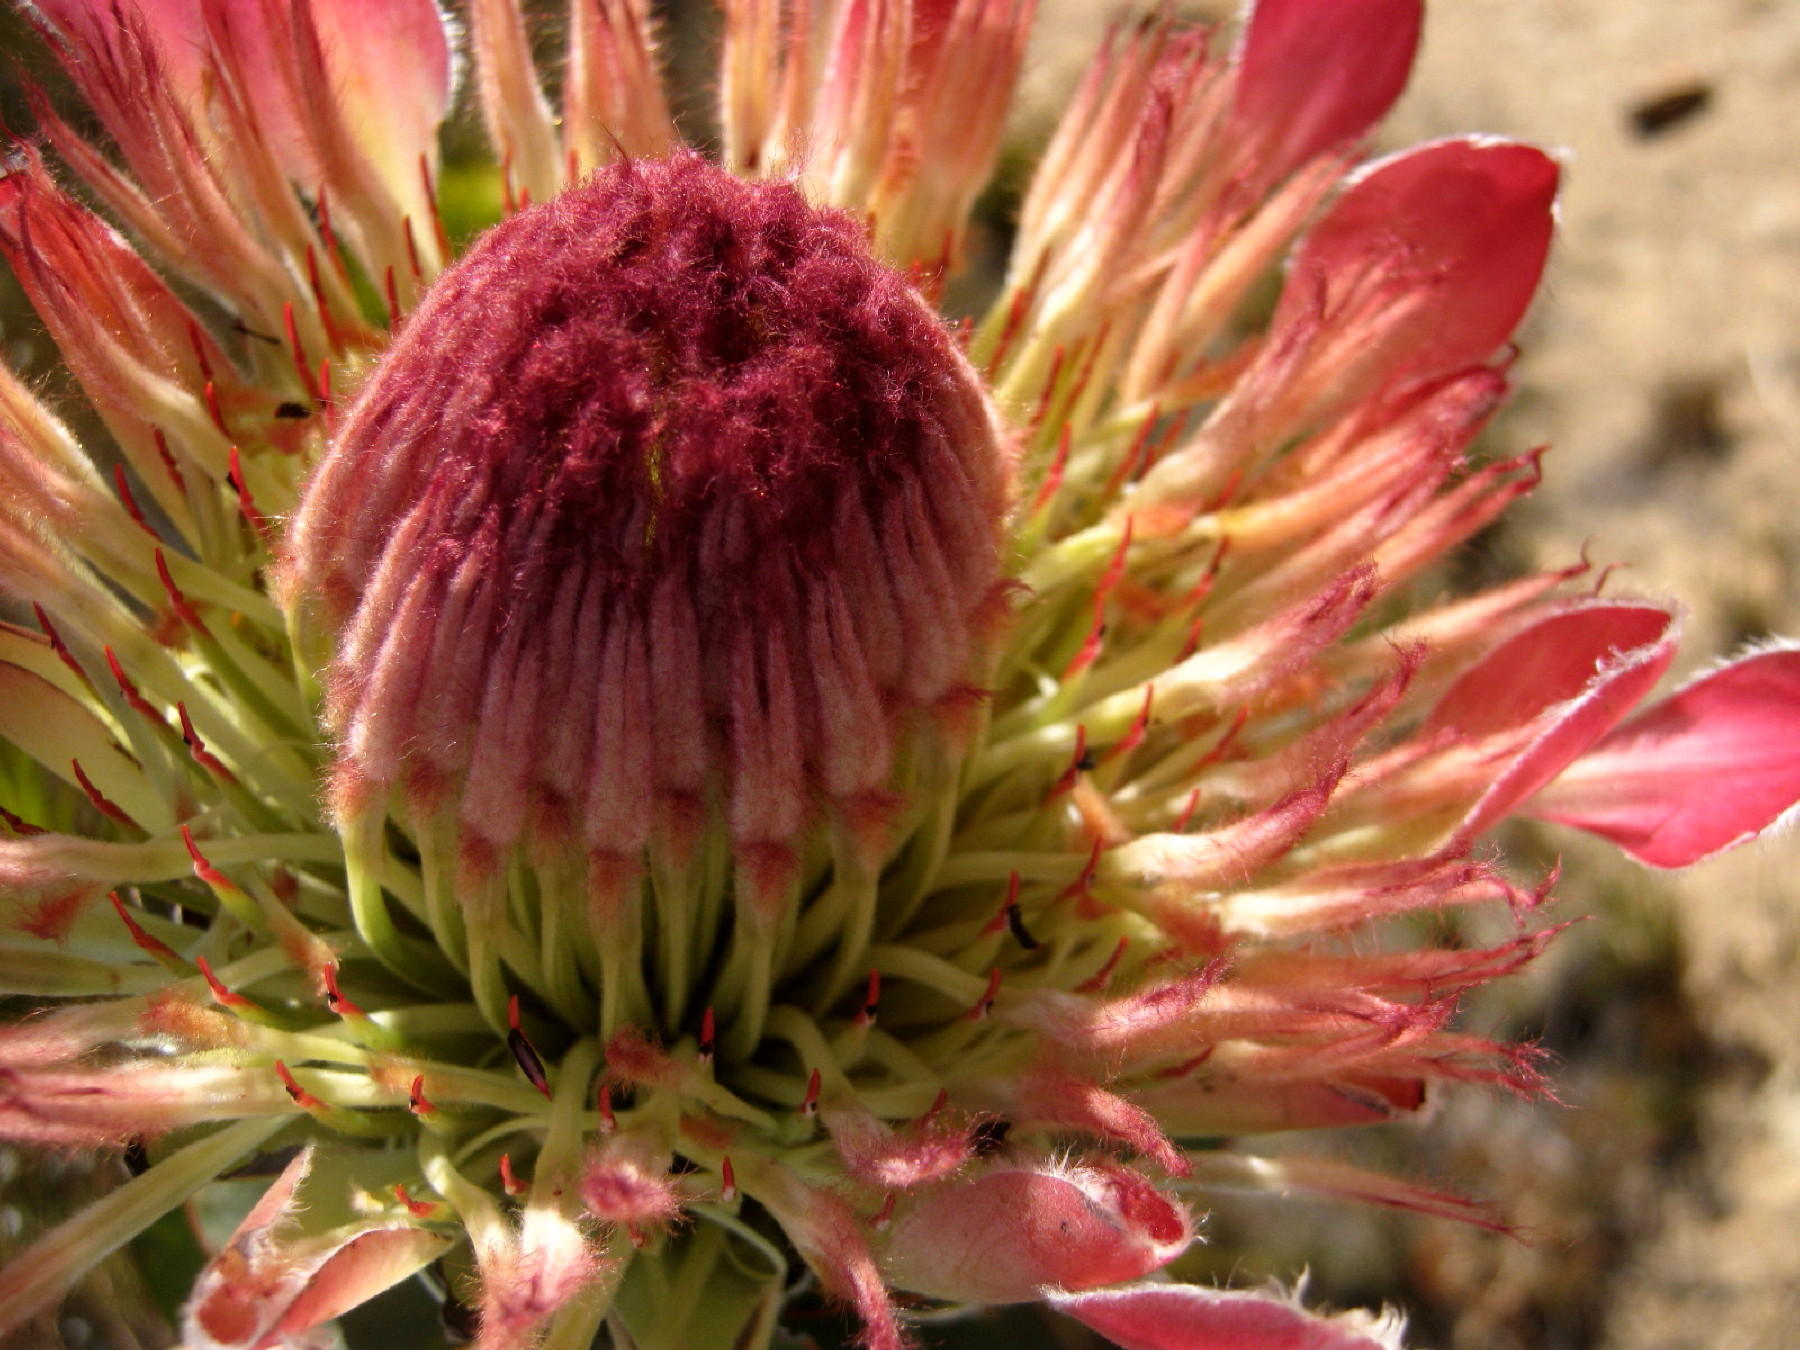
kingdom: Plantae
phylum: Tracheophyta
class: Magnoliopsida
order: Proteales
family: Proteaceae
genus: Protea
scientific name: Protea eximia
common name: Broad-leaved sugarbush
